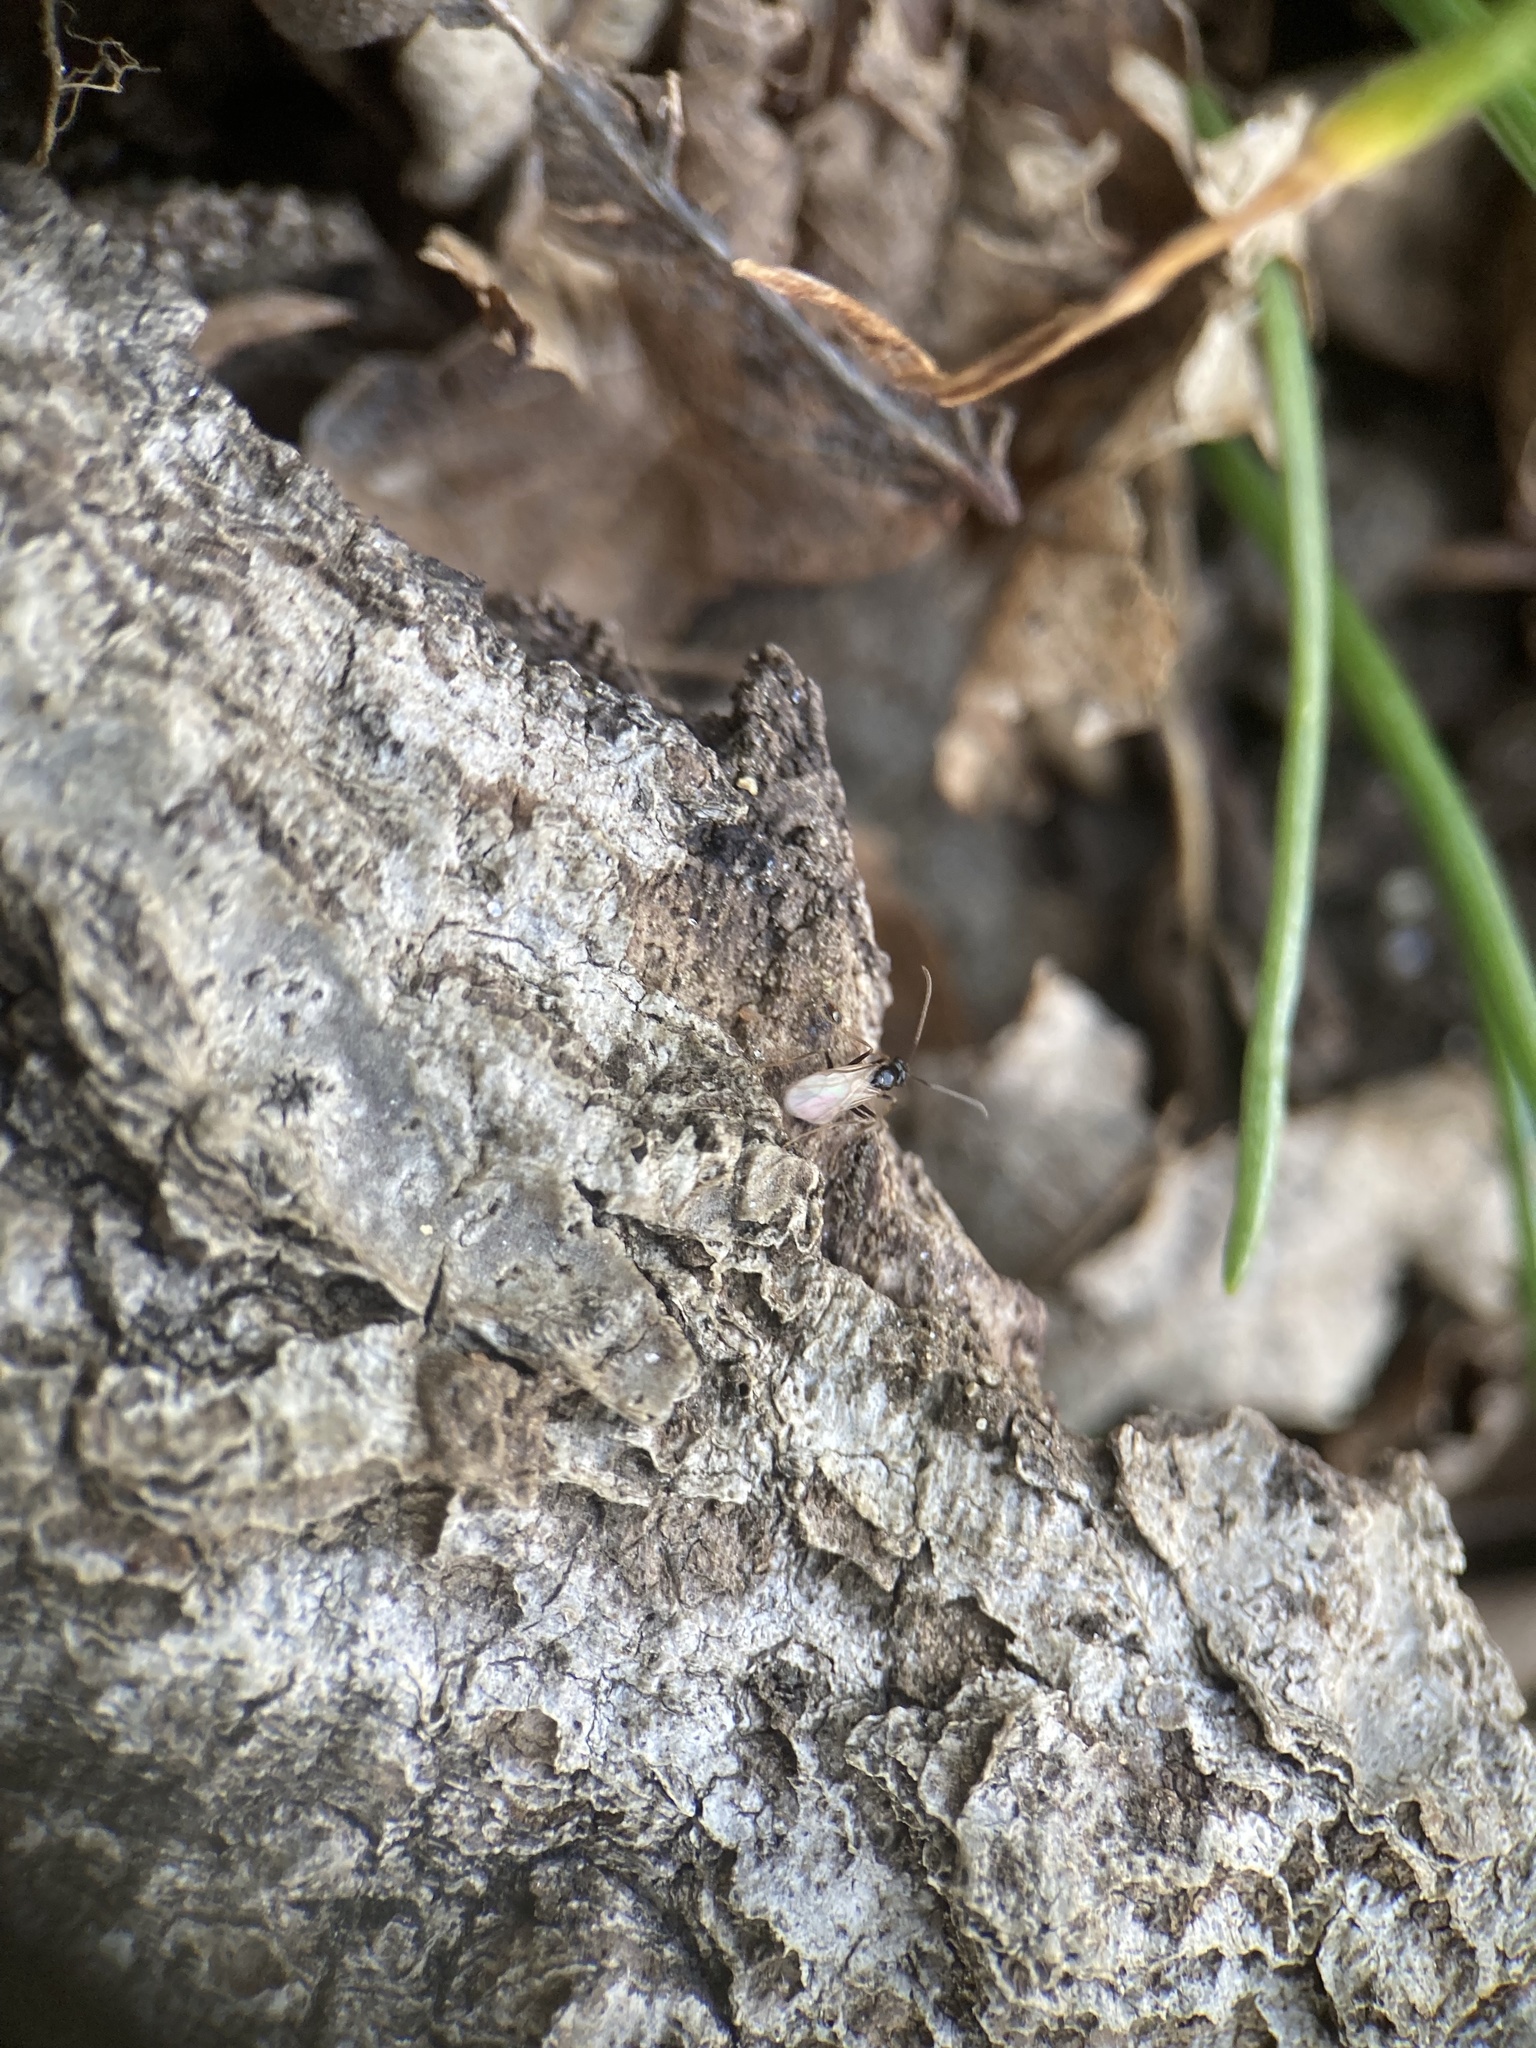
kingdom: Animalia
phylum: Arthropoda
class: Insecta
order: Hymenoptera
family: Formicidae
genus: Prenolepis
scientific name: Prenolepis imparis
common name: Small honey ant
